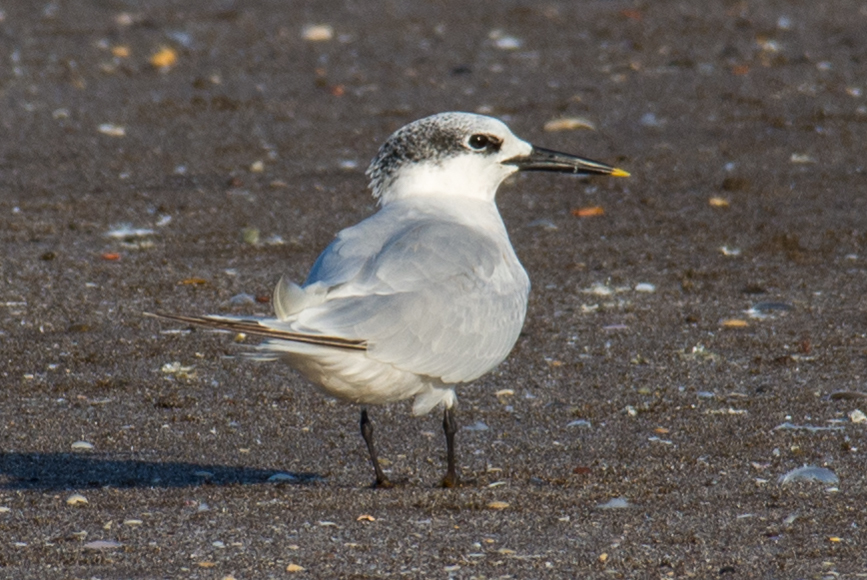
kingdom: Animalia
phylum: Chordata
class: Aves
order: Charadriiformes
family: Laridae
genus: Thalasseus
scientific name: Thalasseus sandvicensis
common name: Sandwich tern
